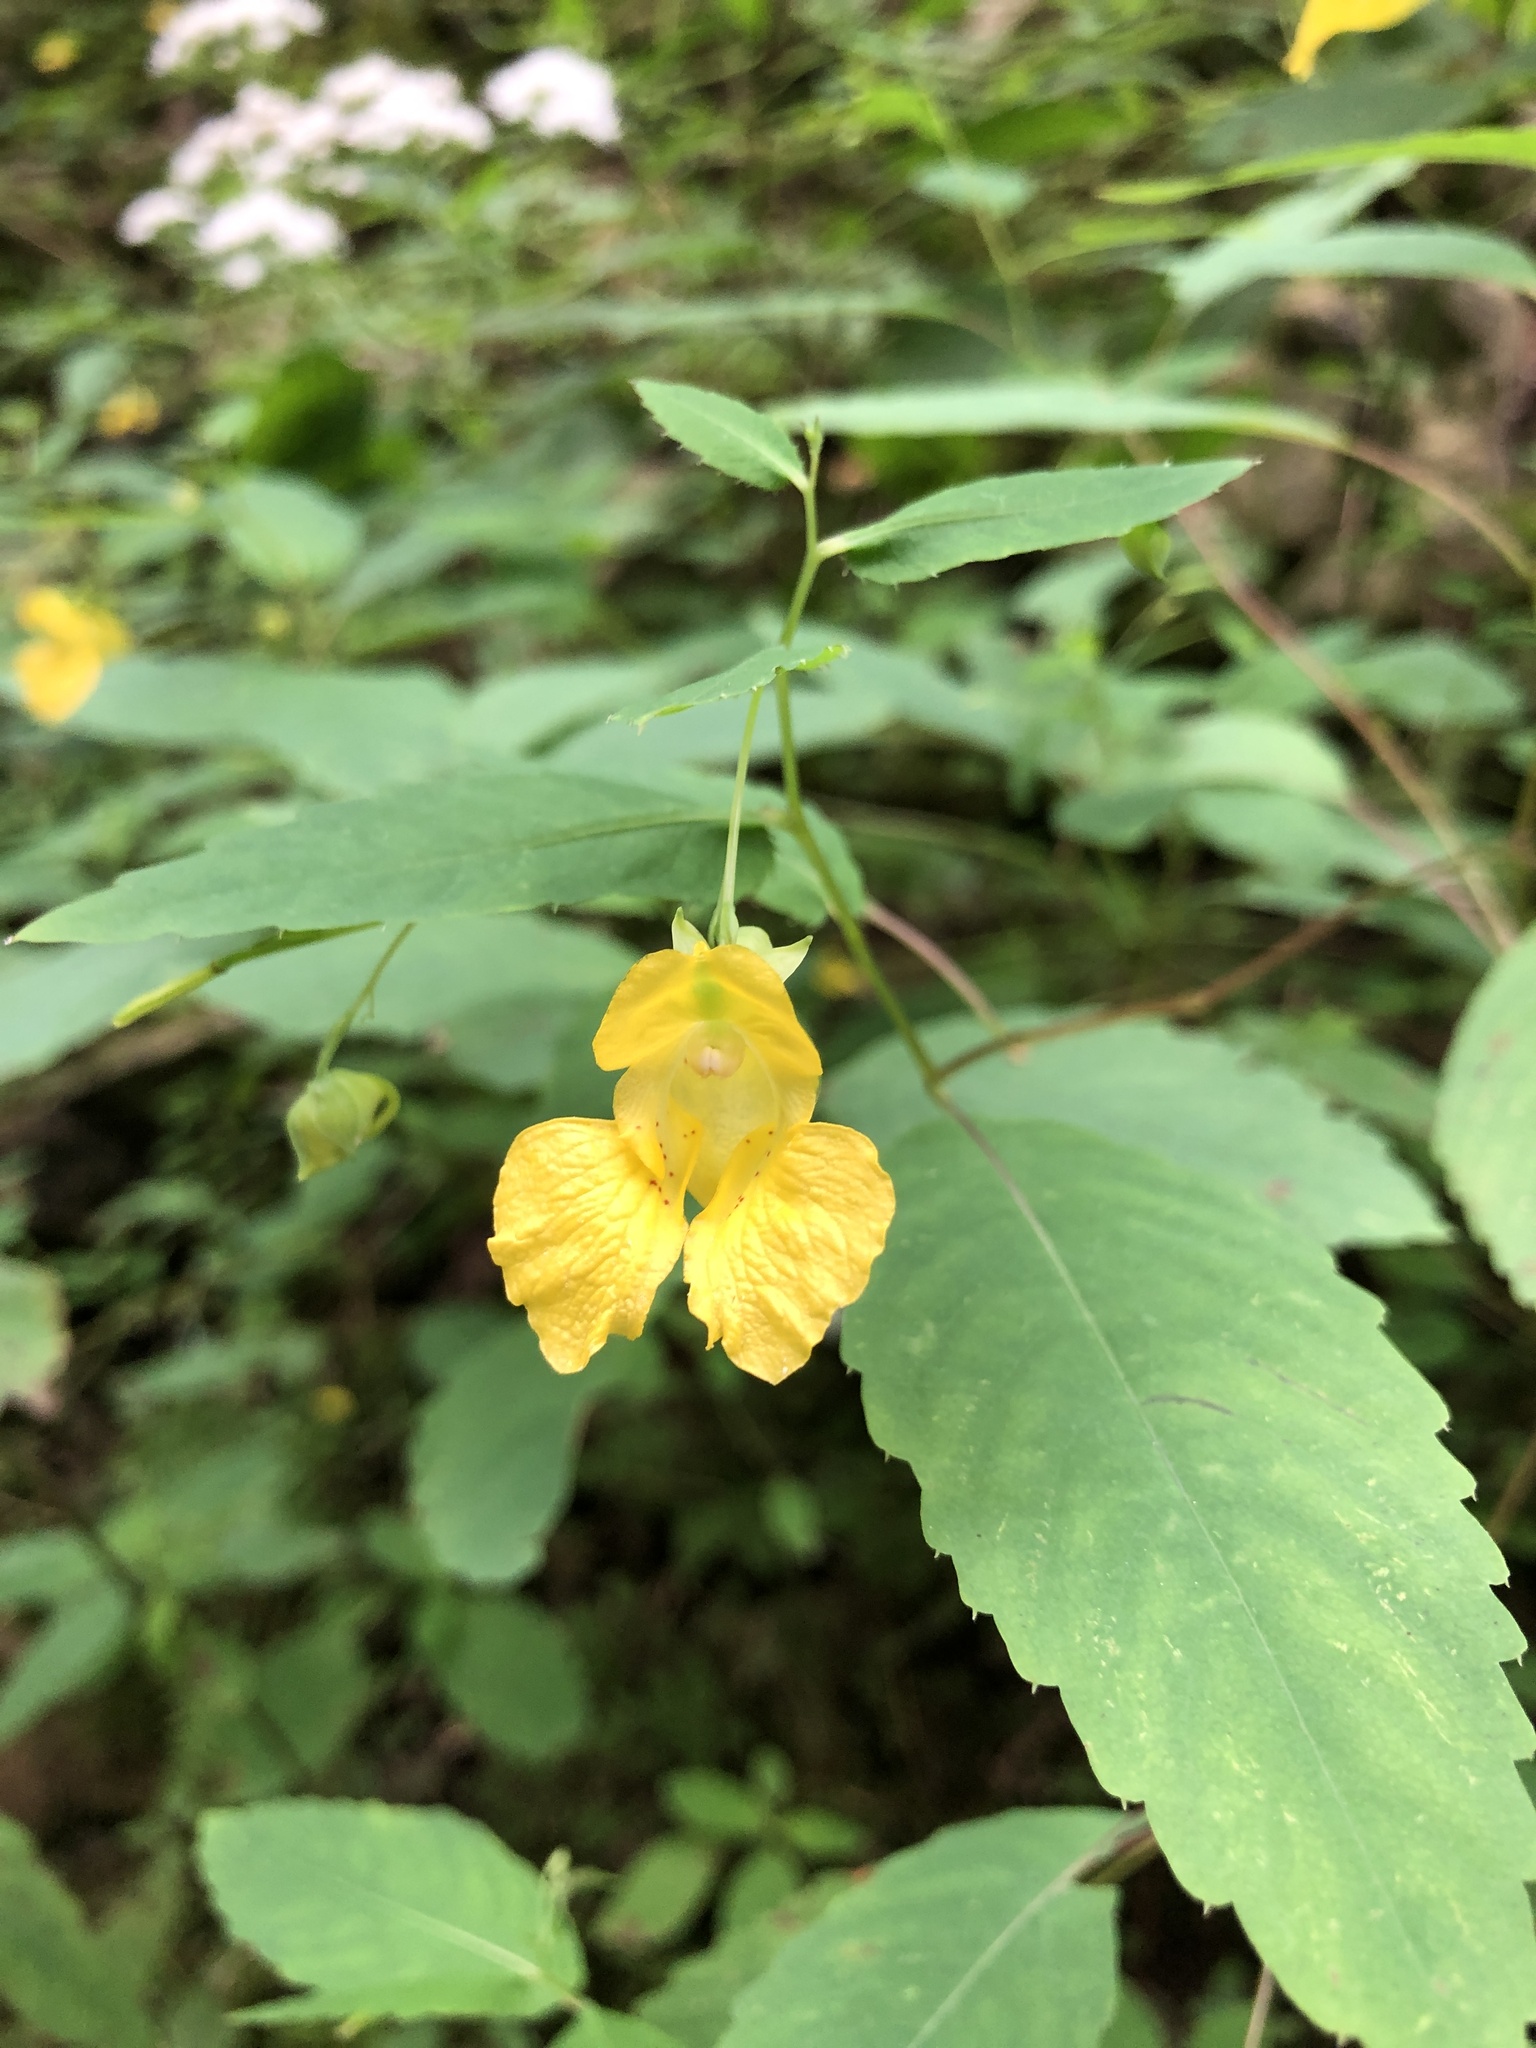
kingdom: Plantae
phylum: Tracheophyta
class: Magnoliopsida
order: Ericales
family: Balsaminaceae
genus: Impatiens
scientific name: Impatiens pallida
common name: Pale snapweed
